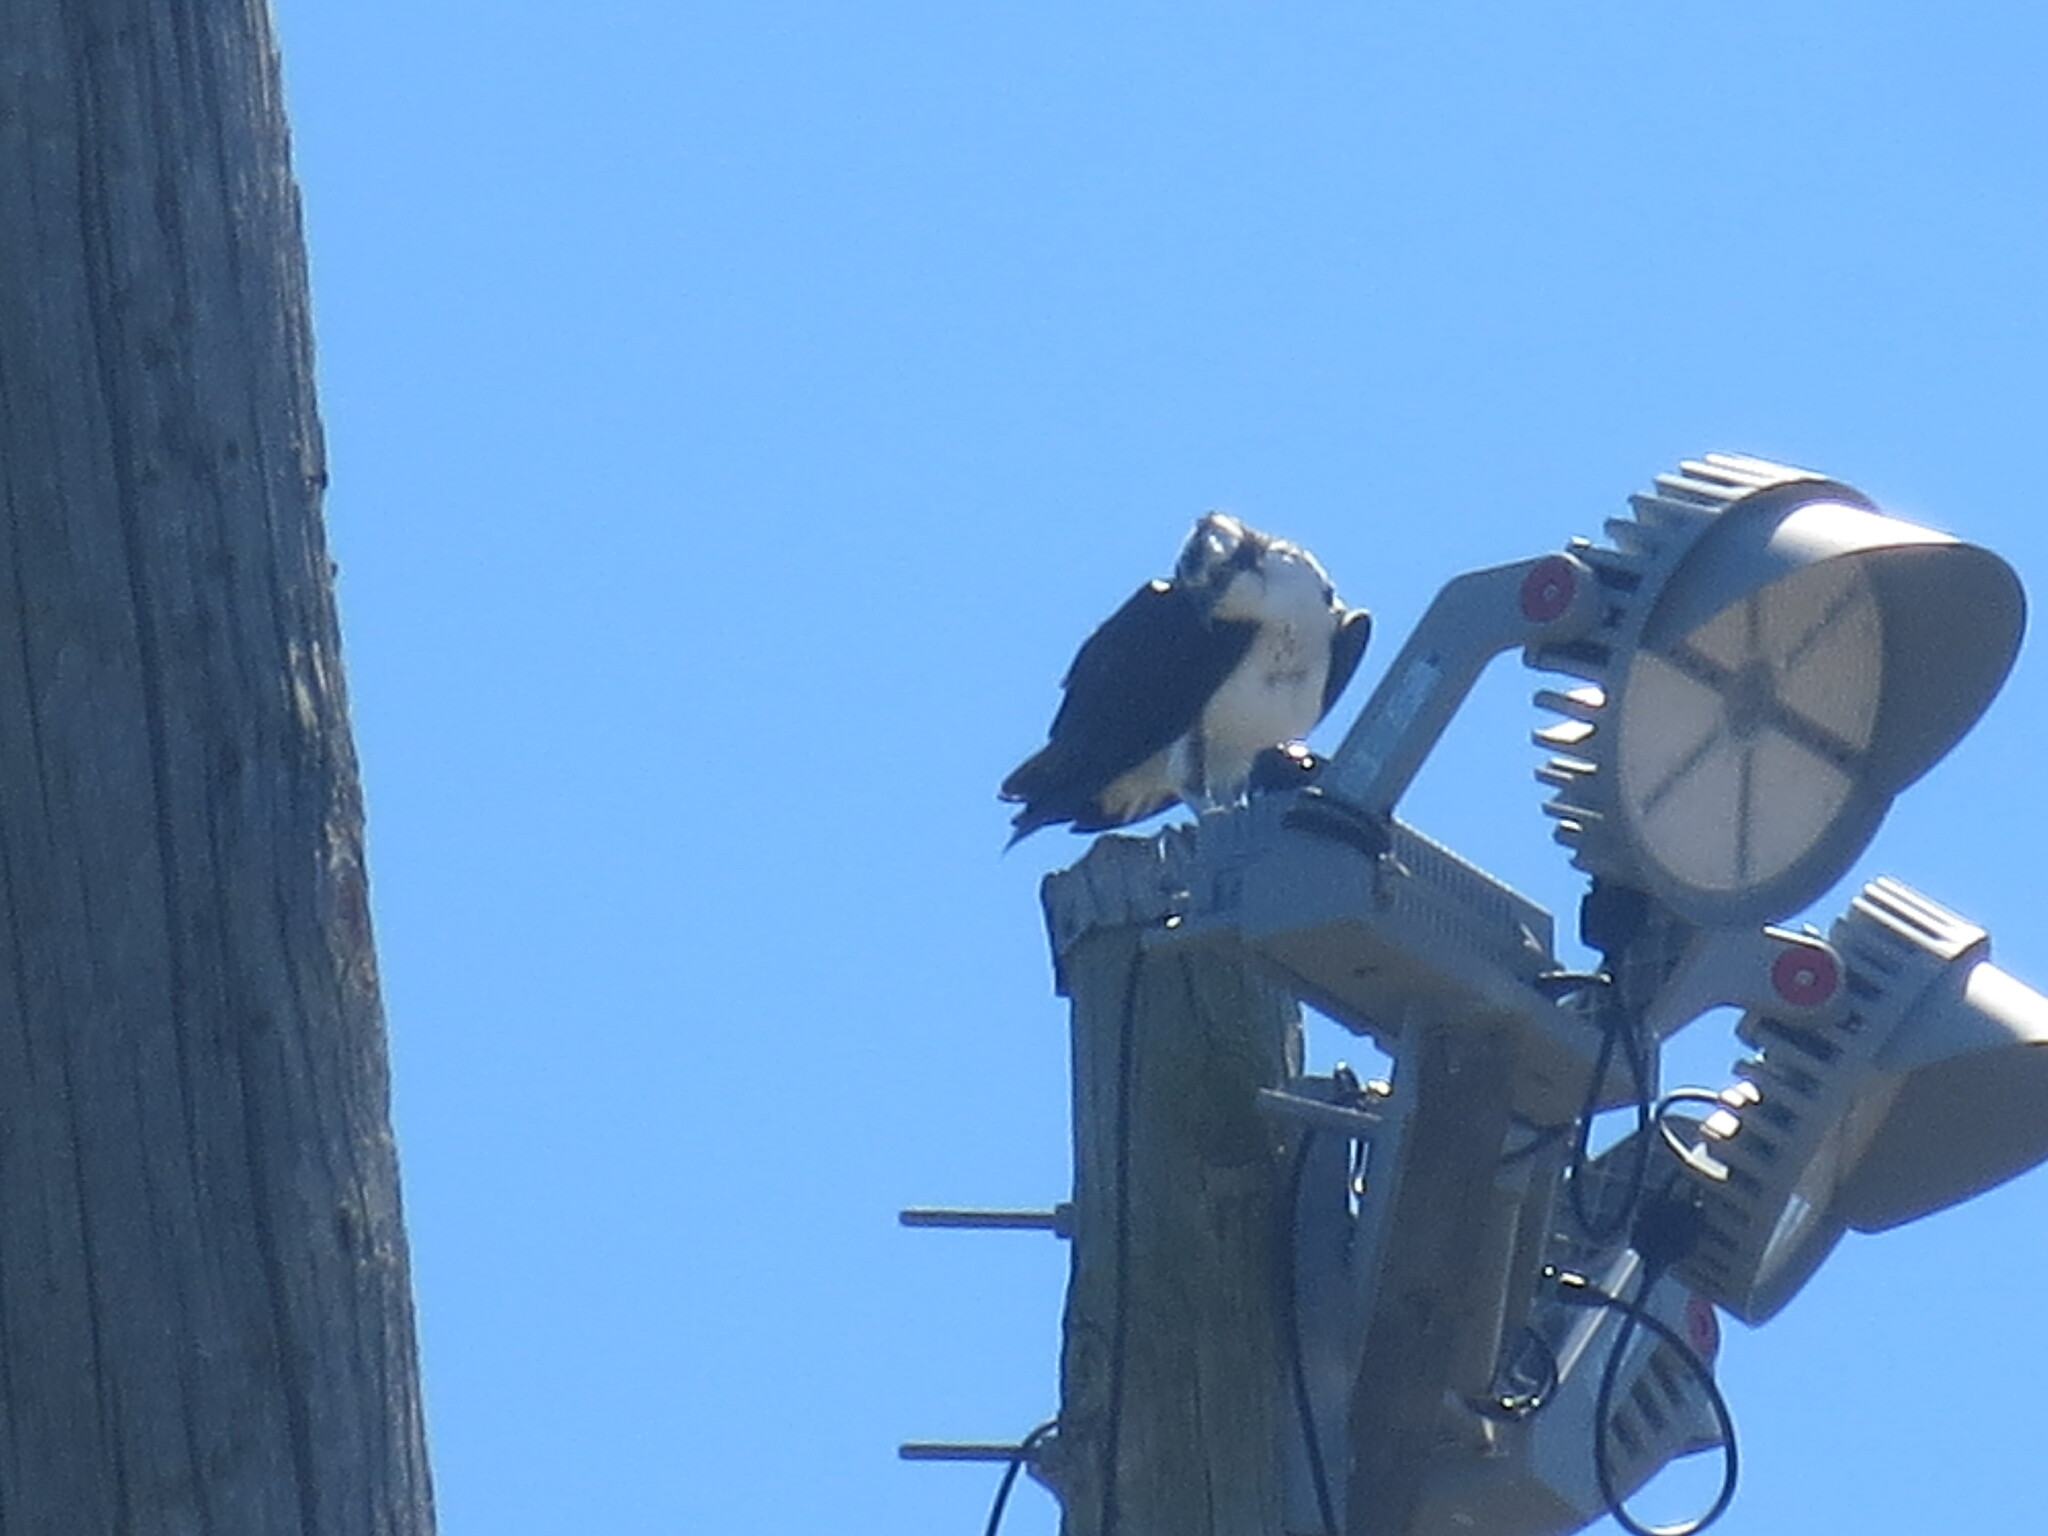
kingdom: Animalia
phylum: Chordata
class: Aves
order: Accipitriformes
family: Pandionidae
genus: Pandion
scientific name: Pandion haliaetus
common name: Osprey
